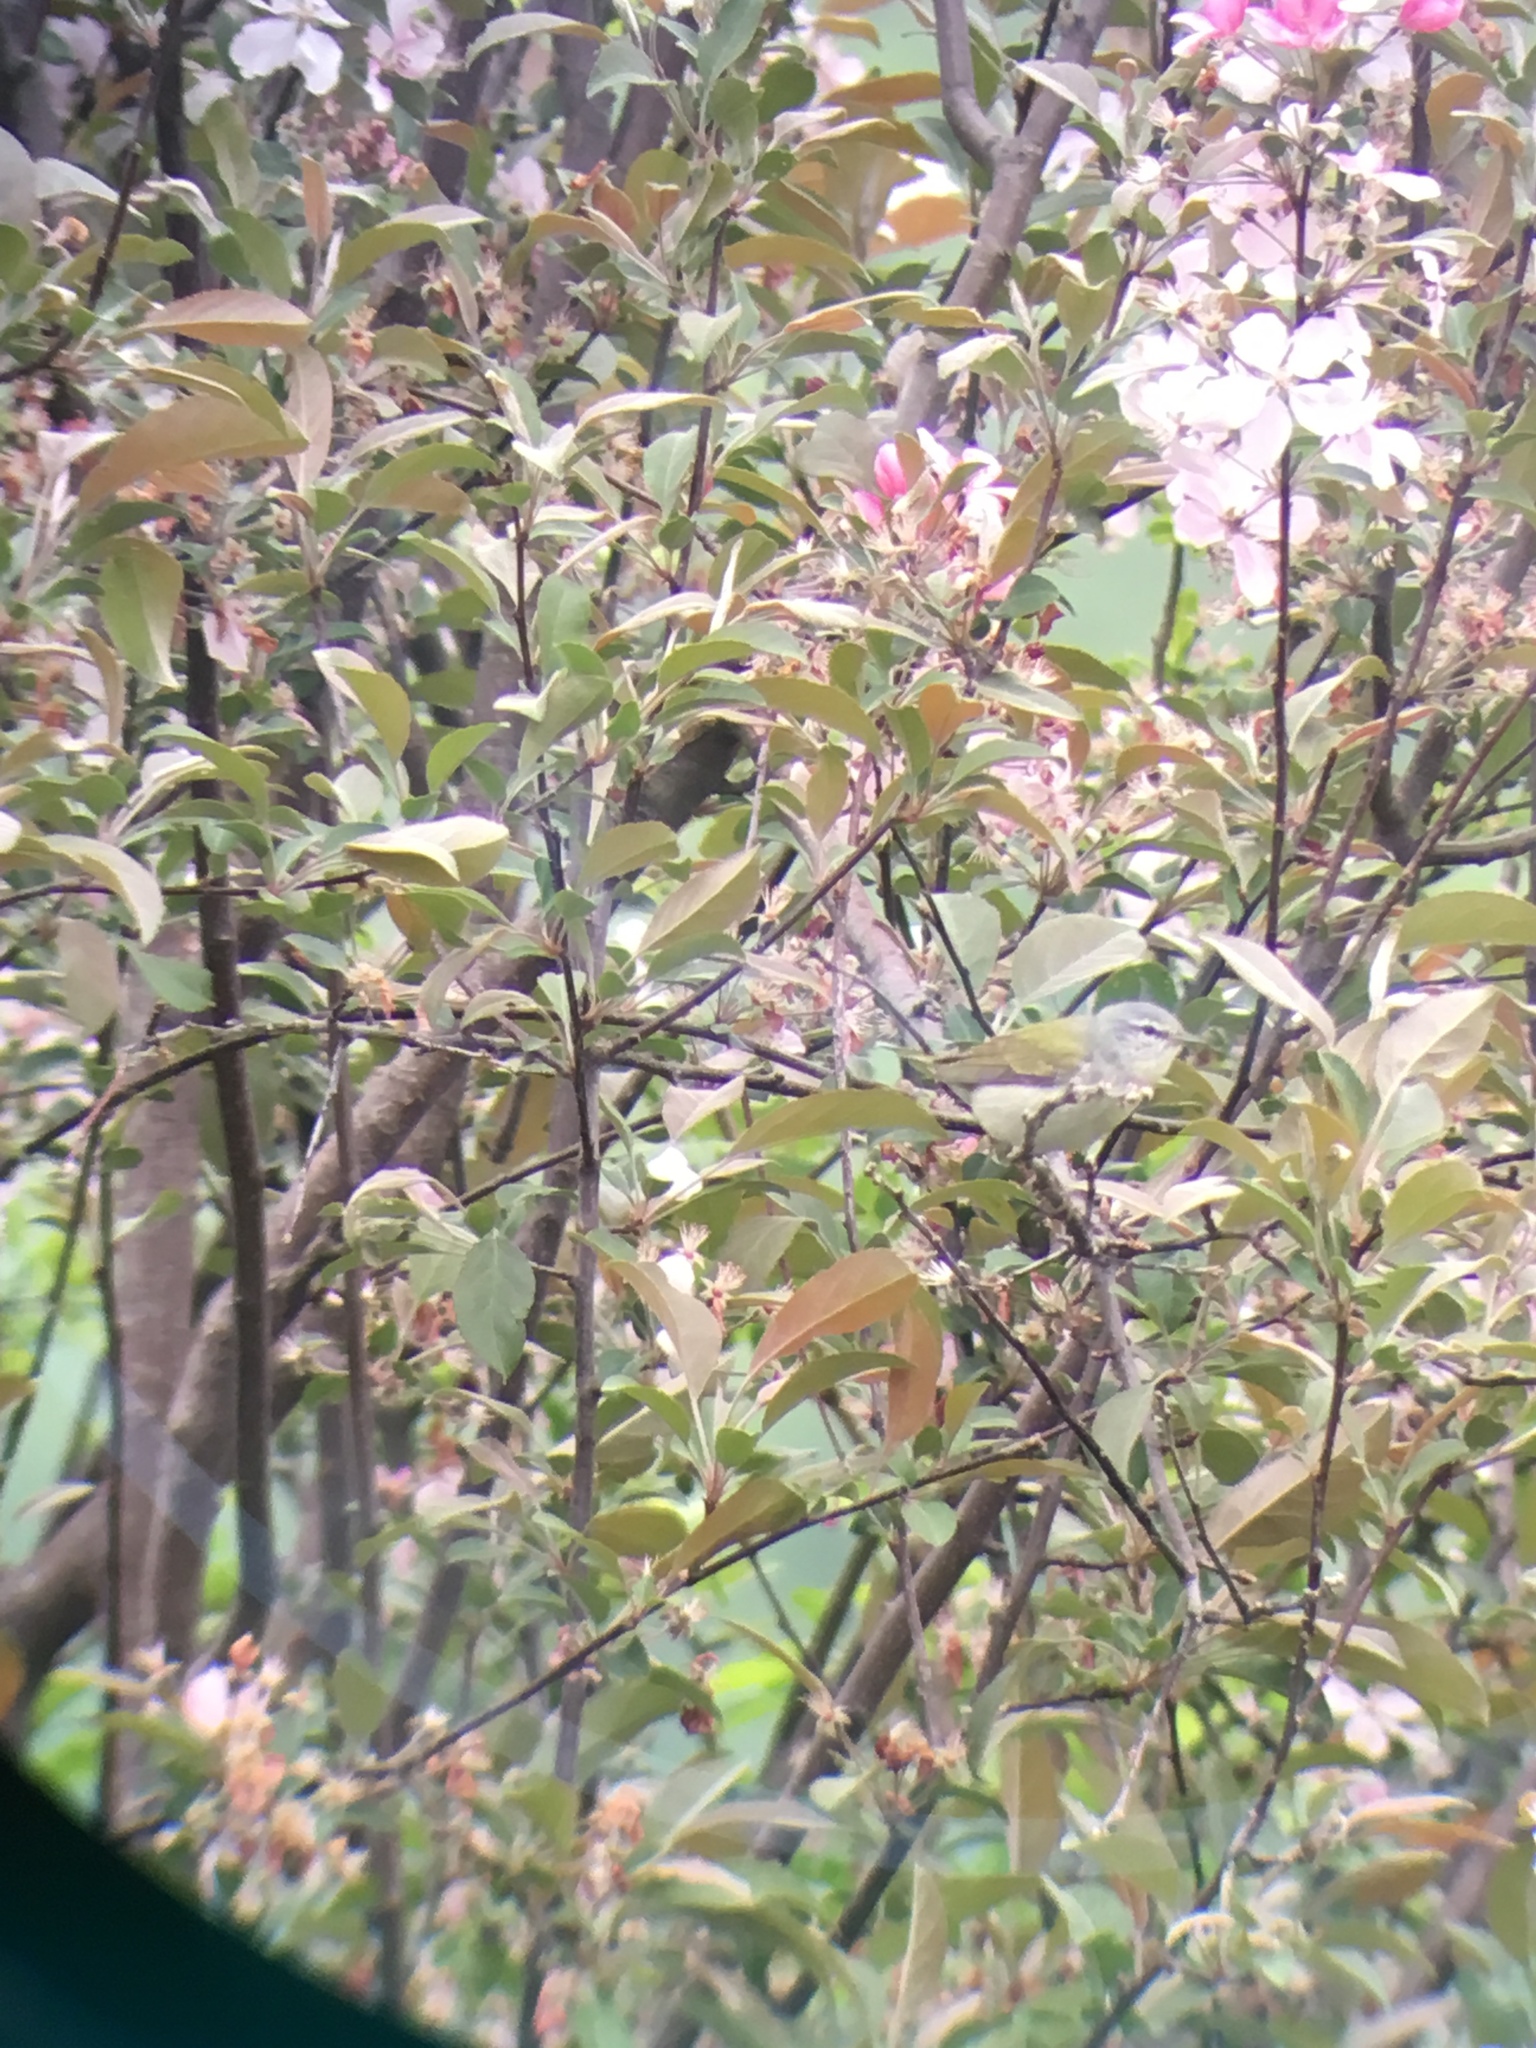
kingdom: Animalia
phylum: Chordata
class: Aves
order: Passeriformes
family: Parulidae
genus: Leiothlypis
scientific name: Leiothlypis peregrina
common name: Tennessee warbler
